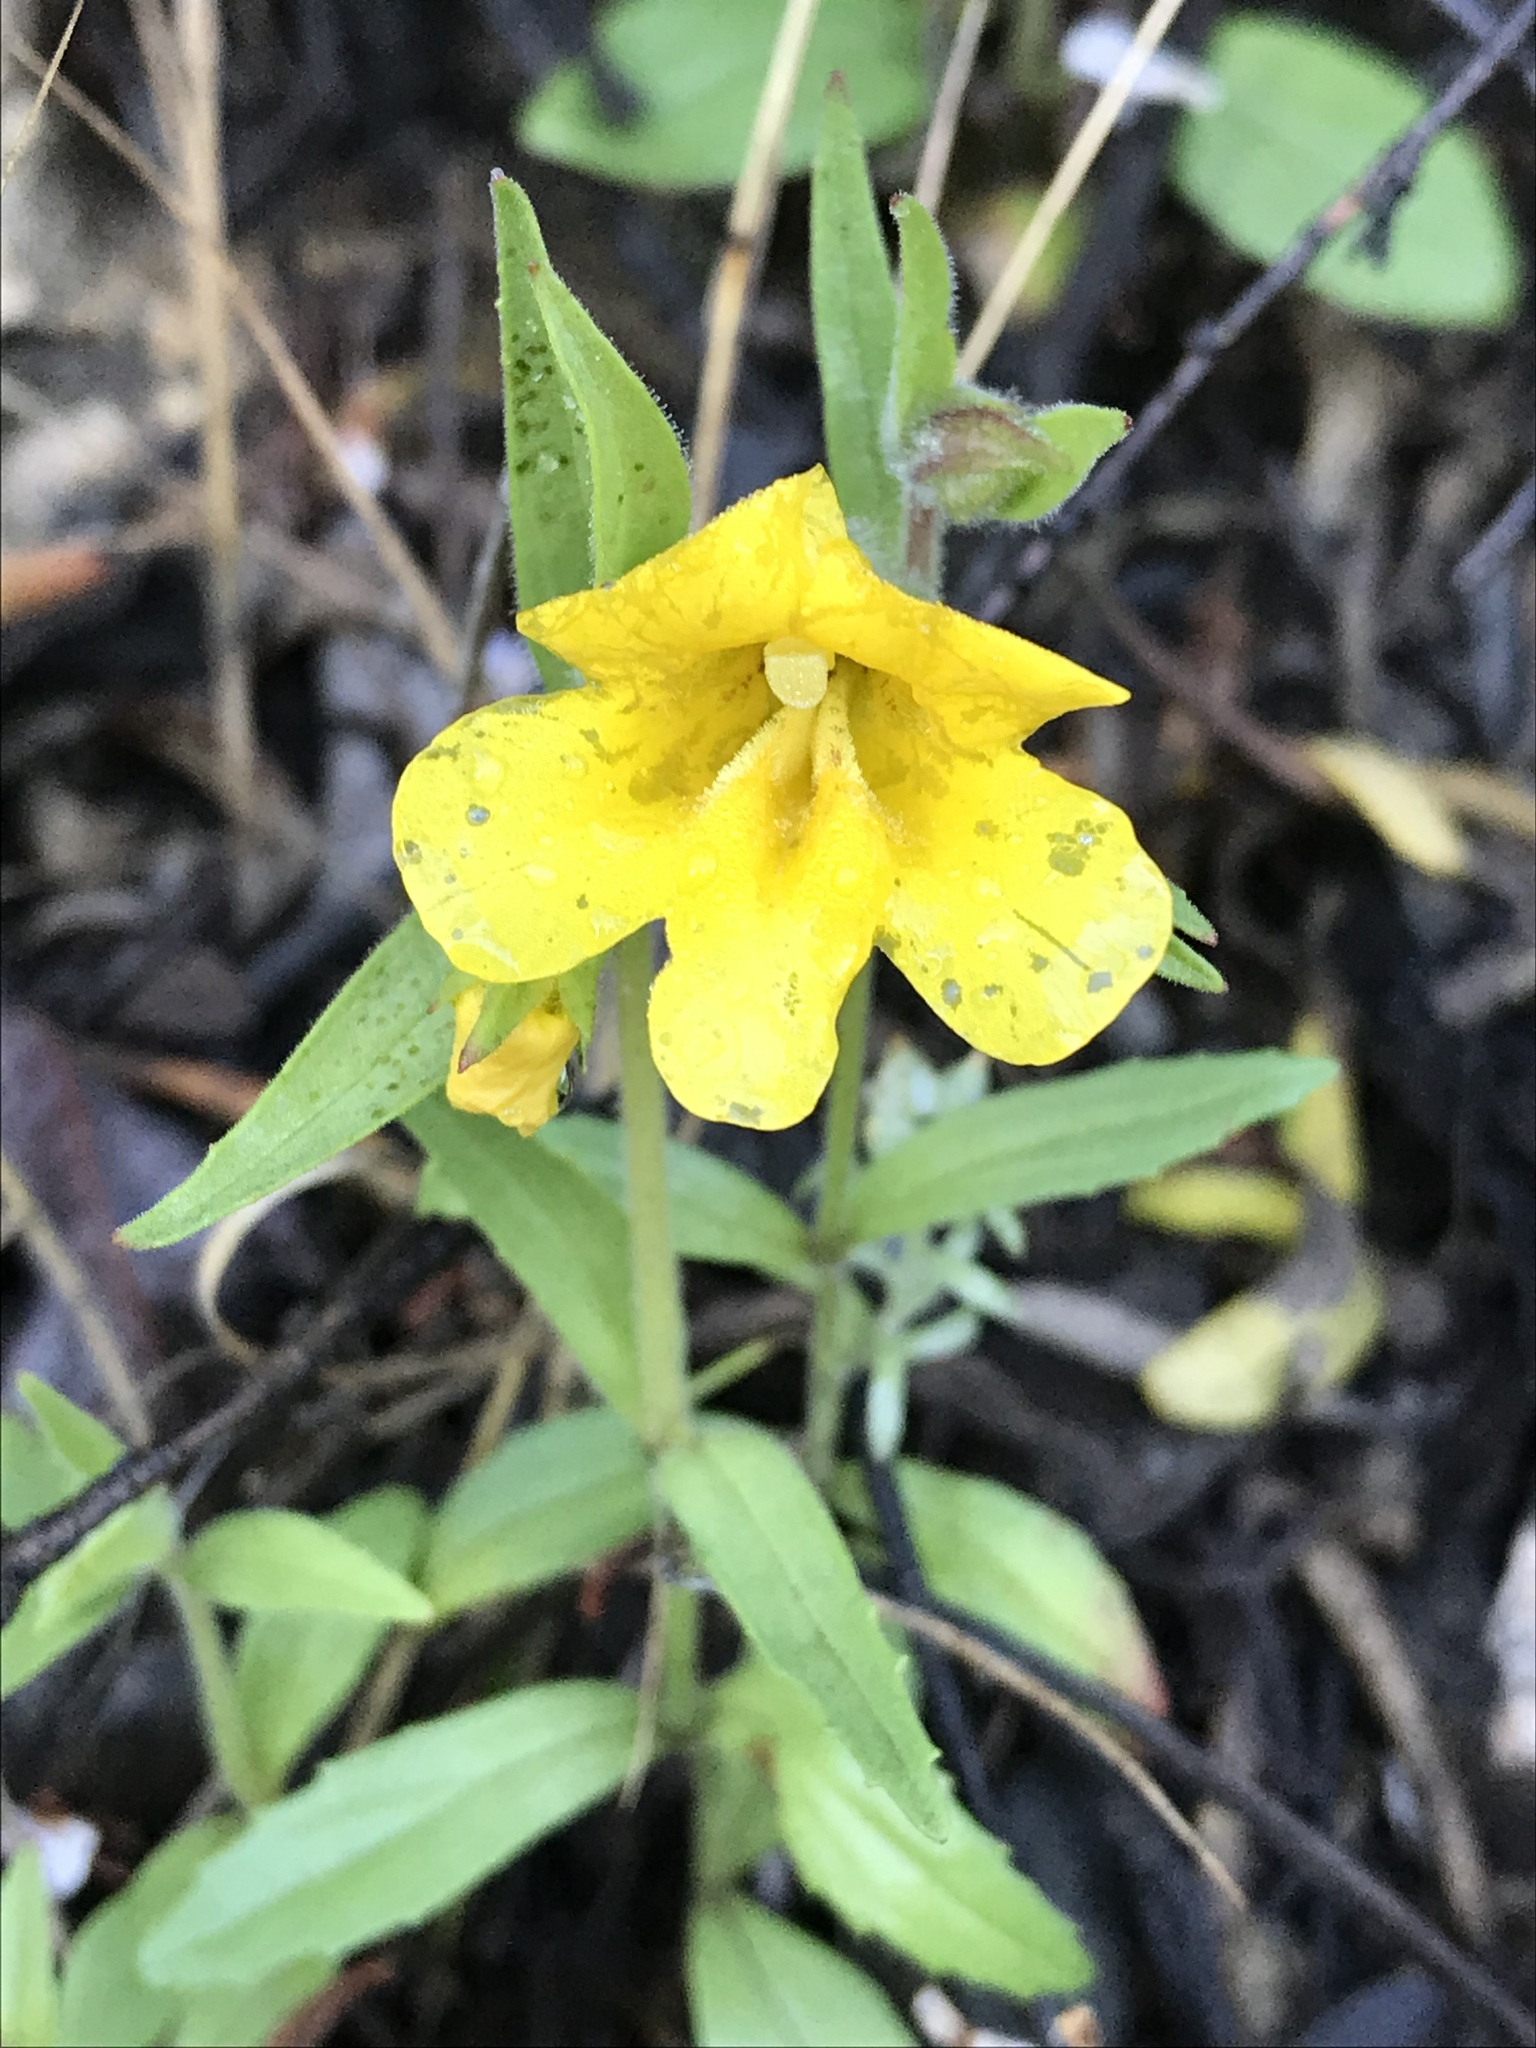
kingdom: Plantae
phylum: Tracheophyta
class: Magnoliopsida
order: Lamiales
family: Phrymaceae
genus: Diplacus
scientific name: Diplacus brevipes
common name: Wide-throat yellow monkey-flower
